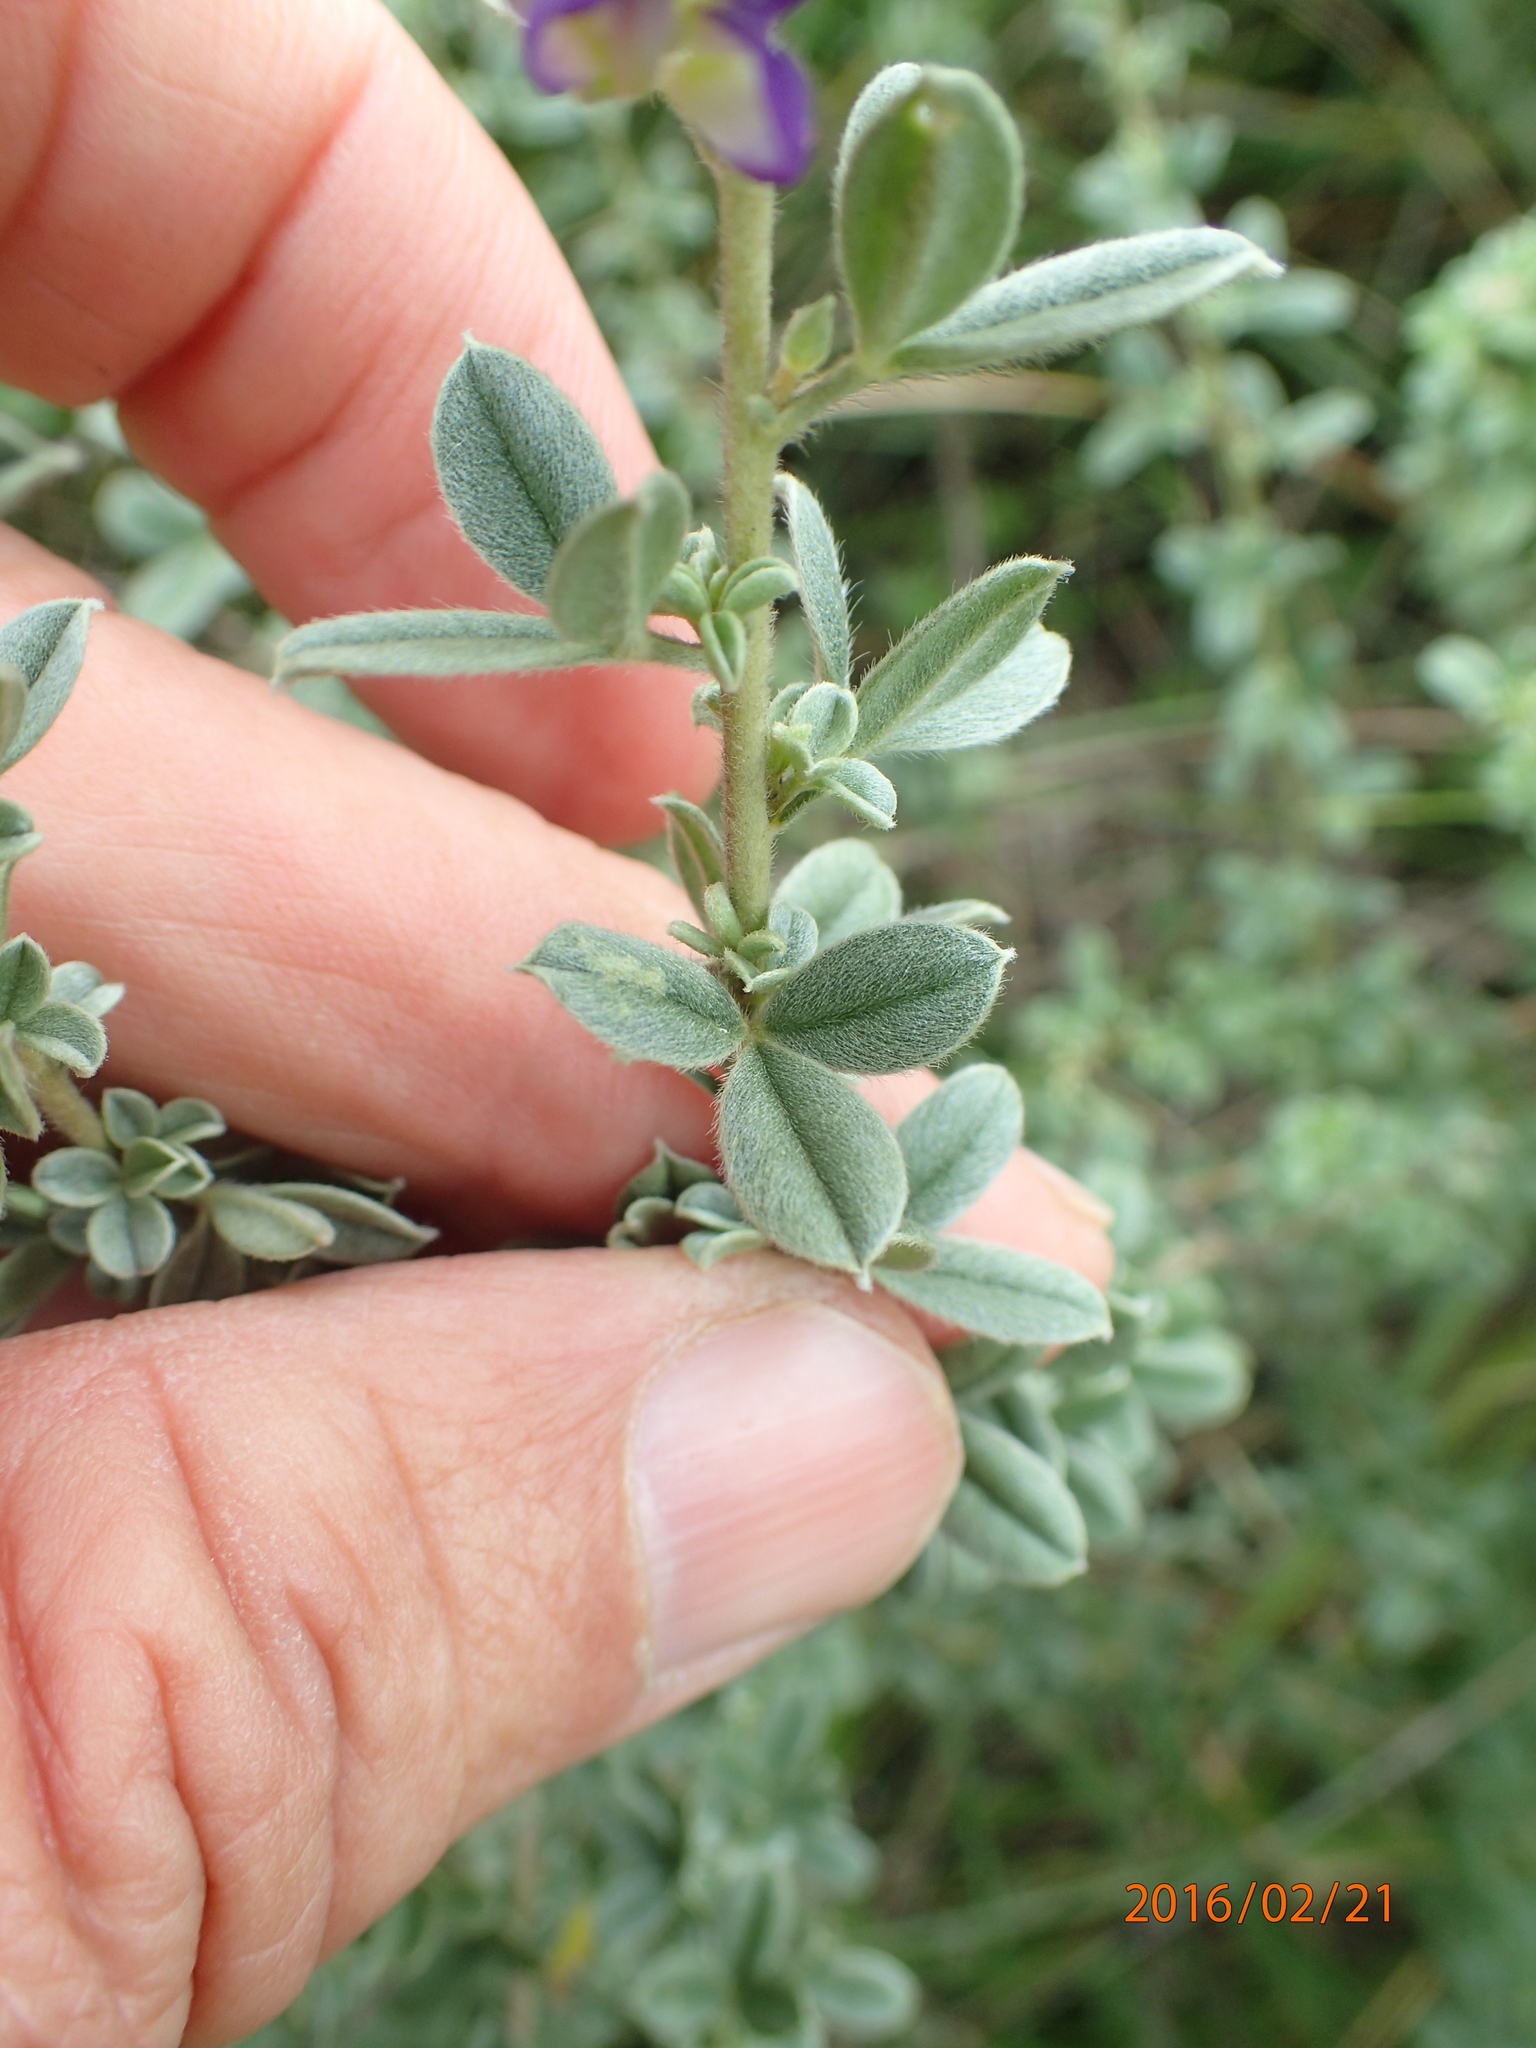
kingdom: Plantae
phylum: Tracheophyta
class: Magnoliopsida
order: Fabales
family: Fabaceae
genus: Lotononis
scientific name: Lotononis lotononoides
